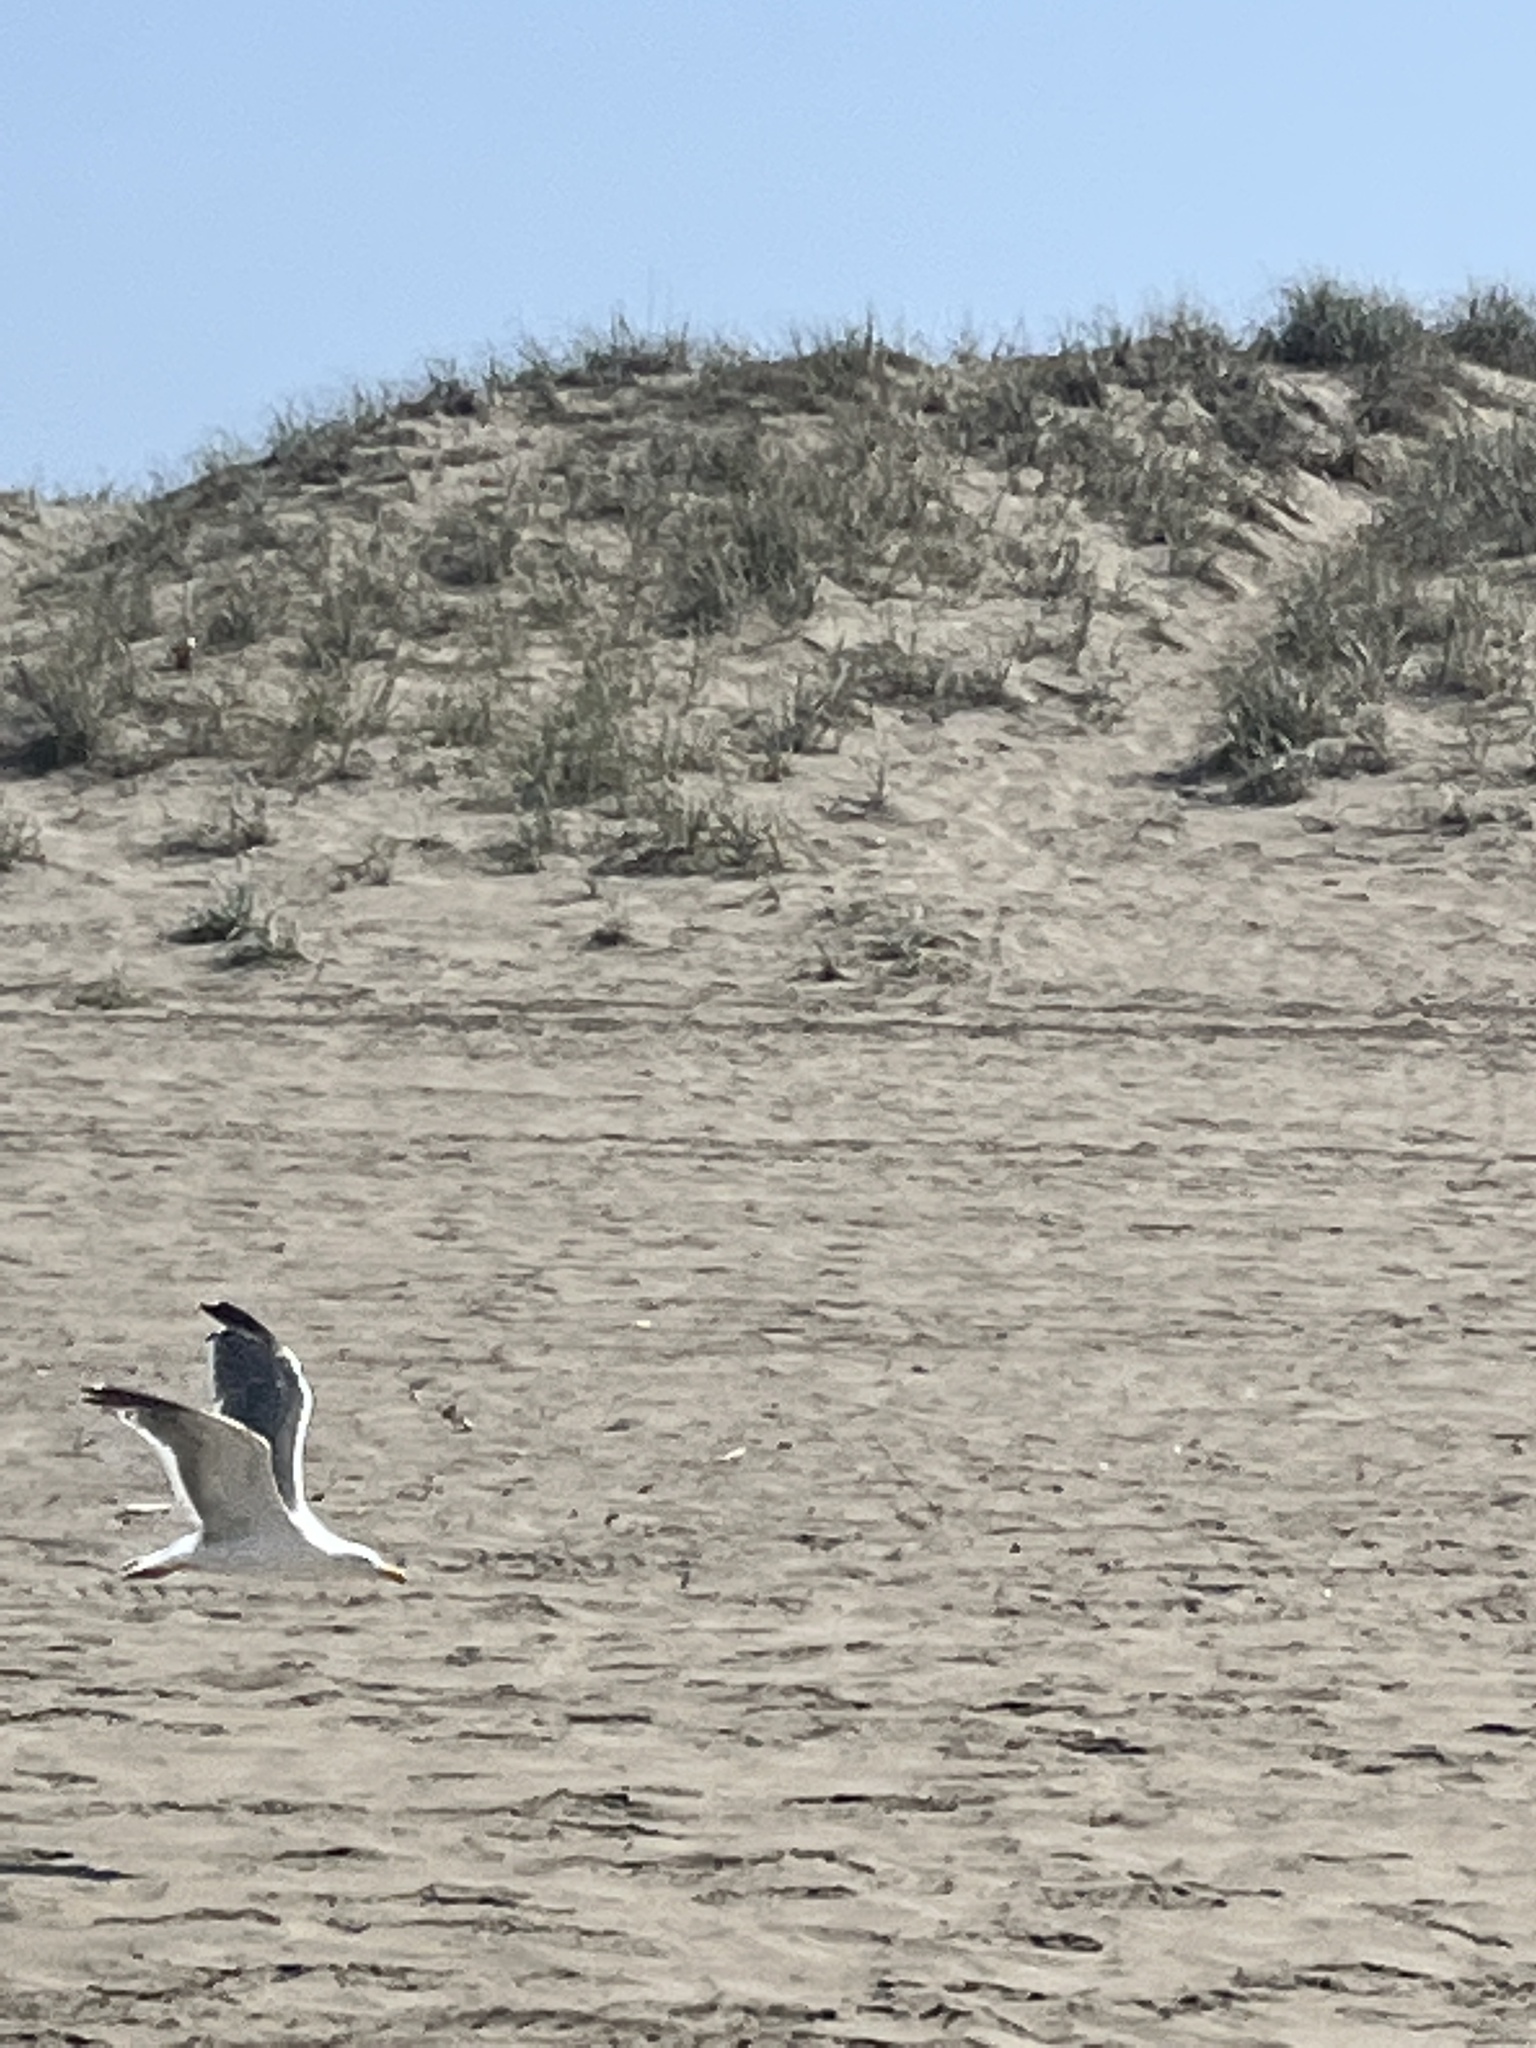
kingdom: Animalia
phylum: Chordata
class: Aves
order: Charadriiformes
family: Laridae
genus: Larus
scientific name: Larus occidentalis
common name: Western gull
